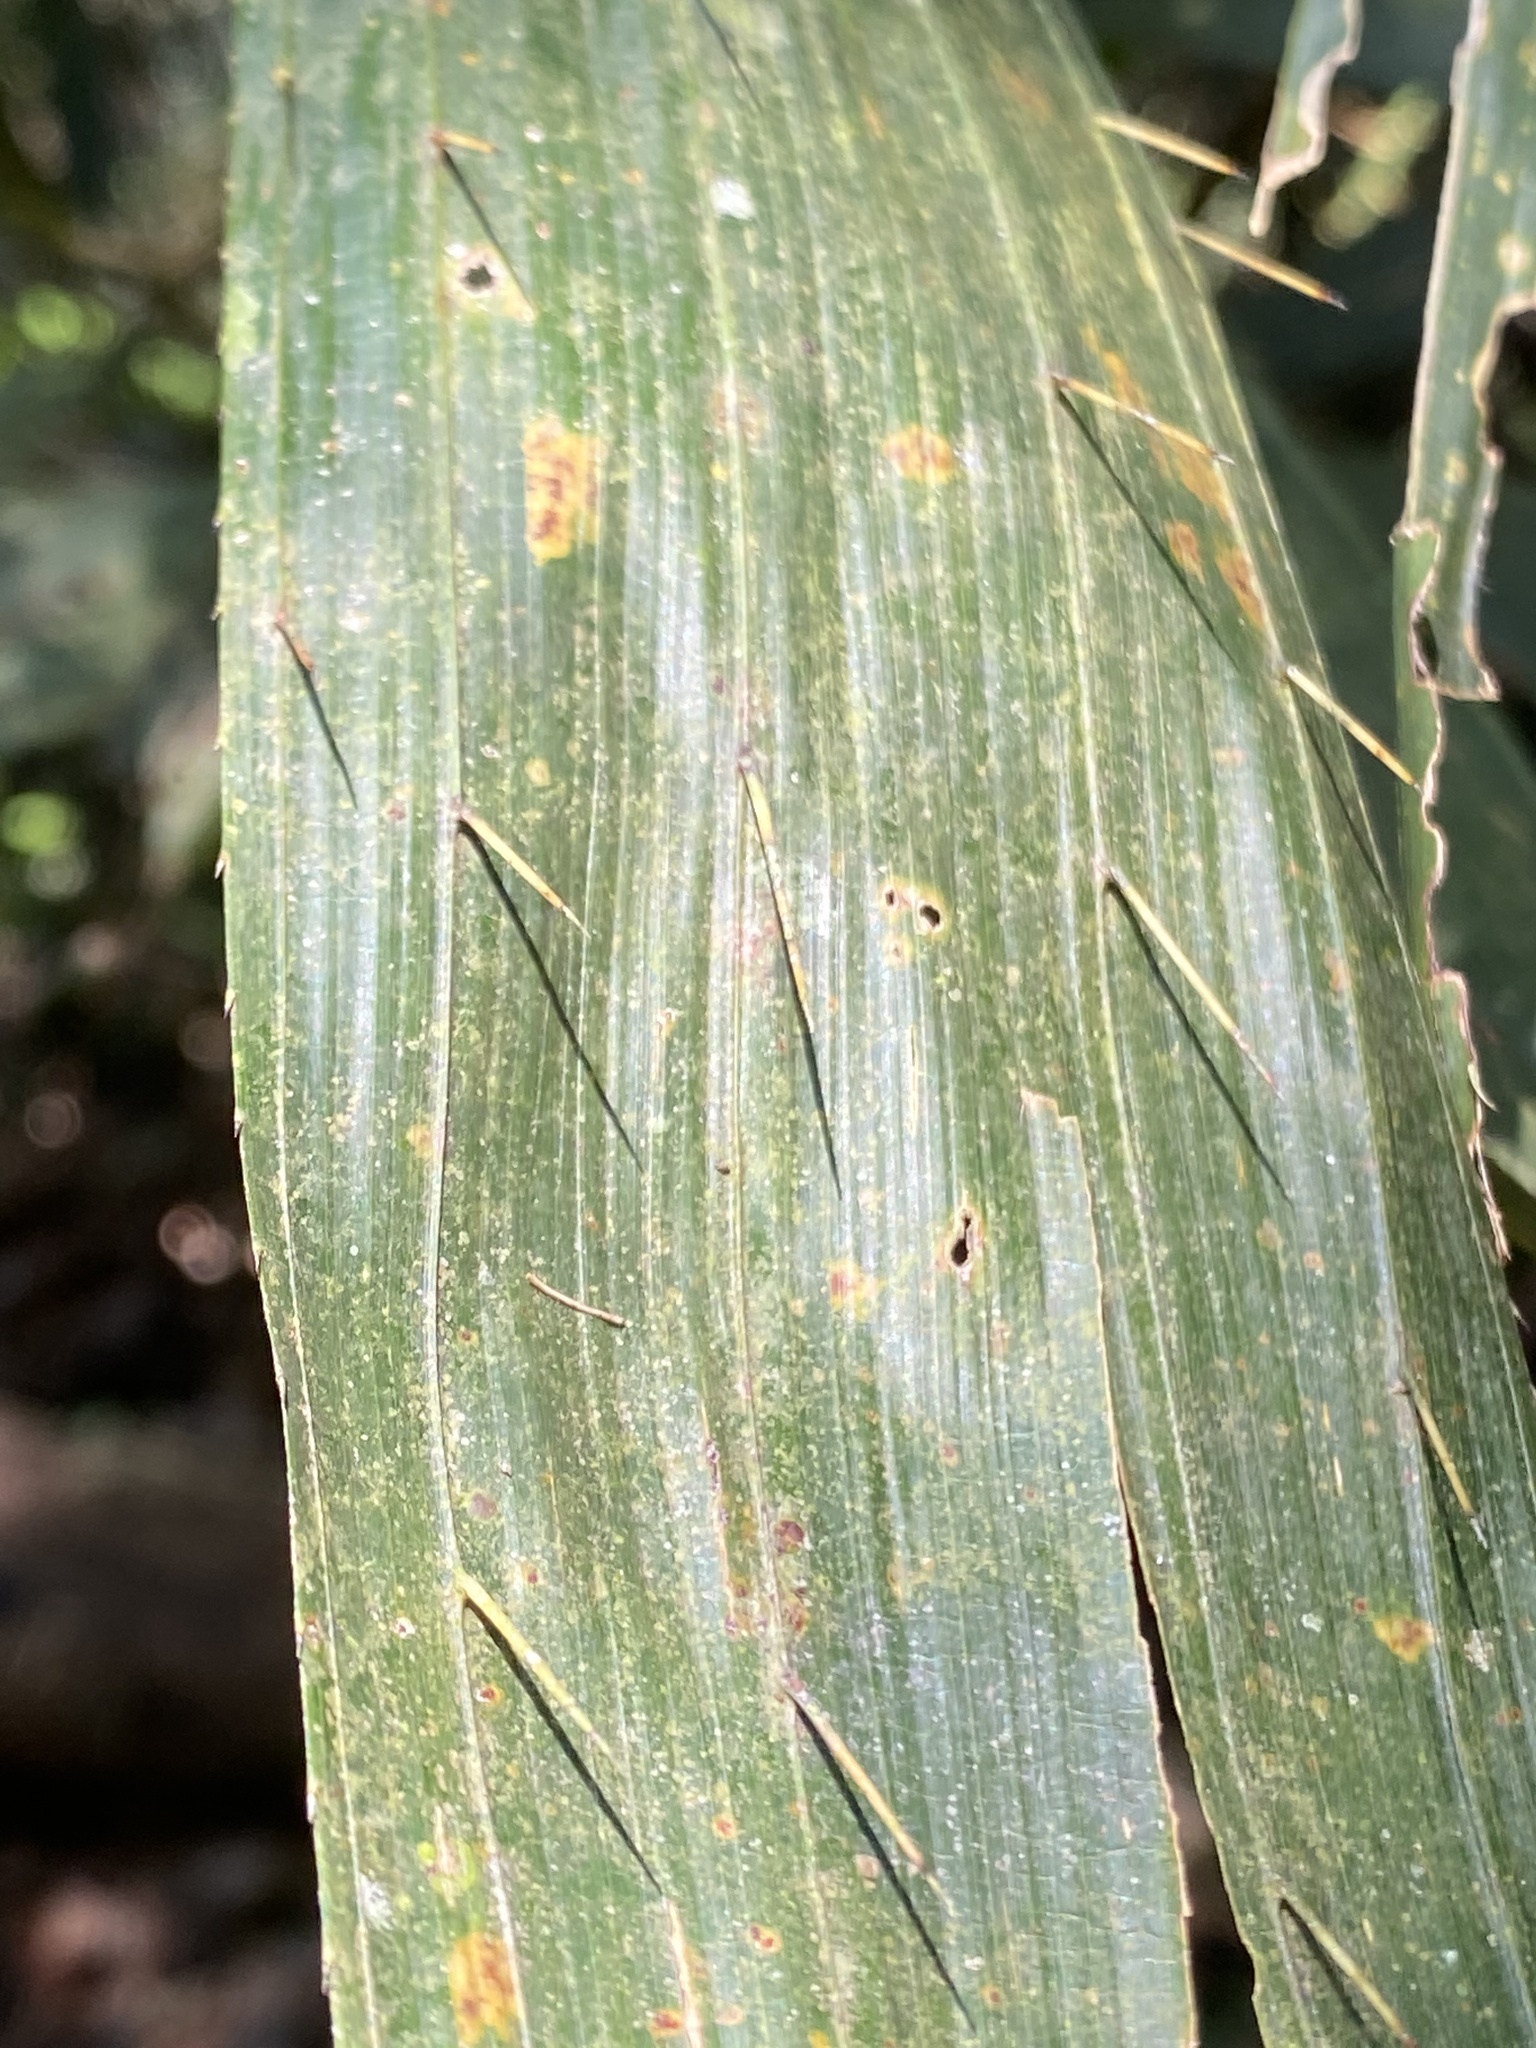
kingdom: Plantae
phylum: Tracheophyta
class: Liliopsida
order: Arecales
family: Arecaceae
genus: Calamus
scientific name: Calamus formosanus
